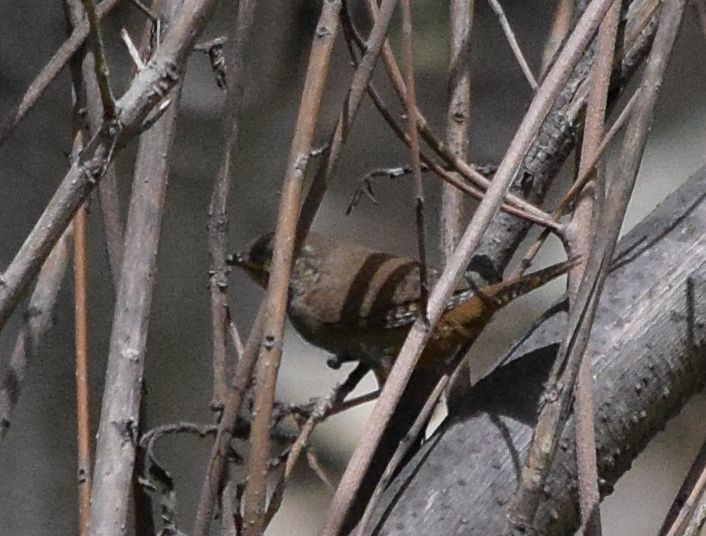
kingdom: Animalia
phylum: Chordata
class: Aves
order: Passeriformes
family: Troglodytidae
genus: Troglodytes
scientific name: Troglodytes aedon
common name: House wren
